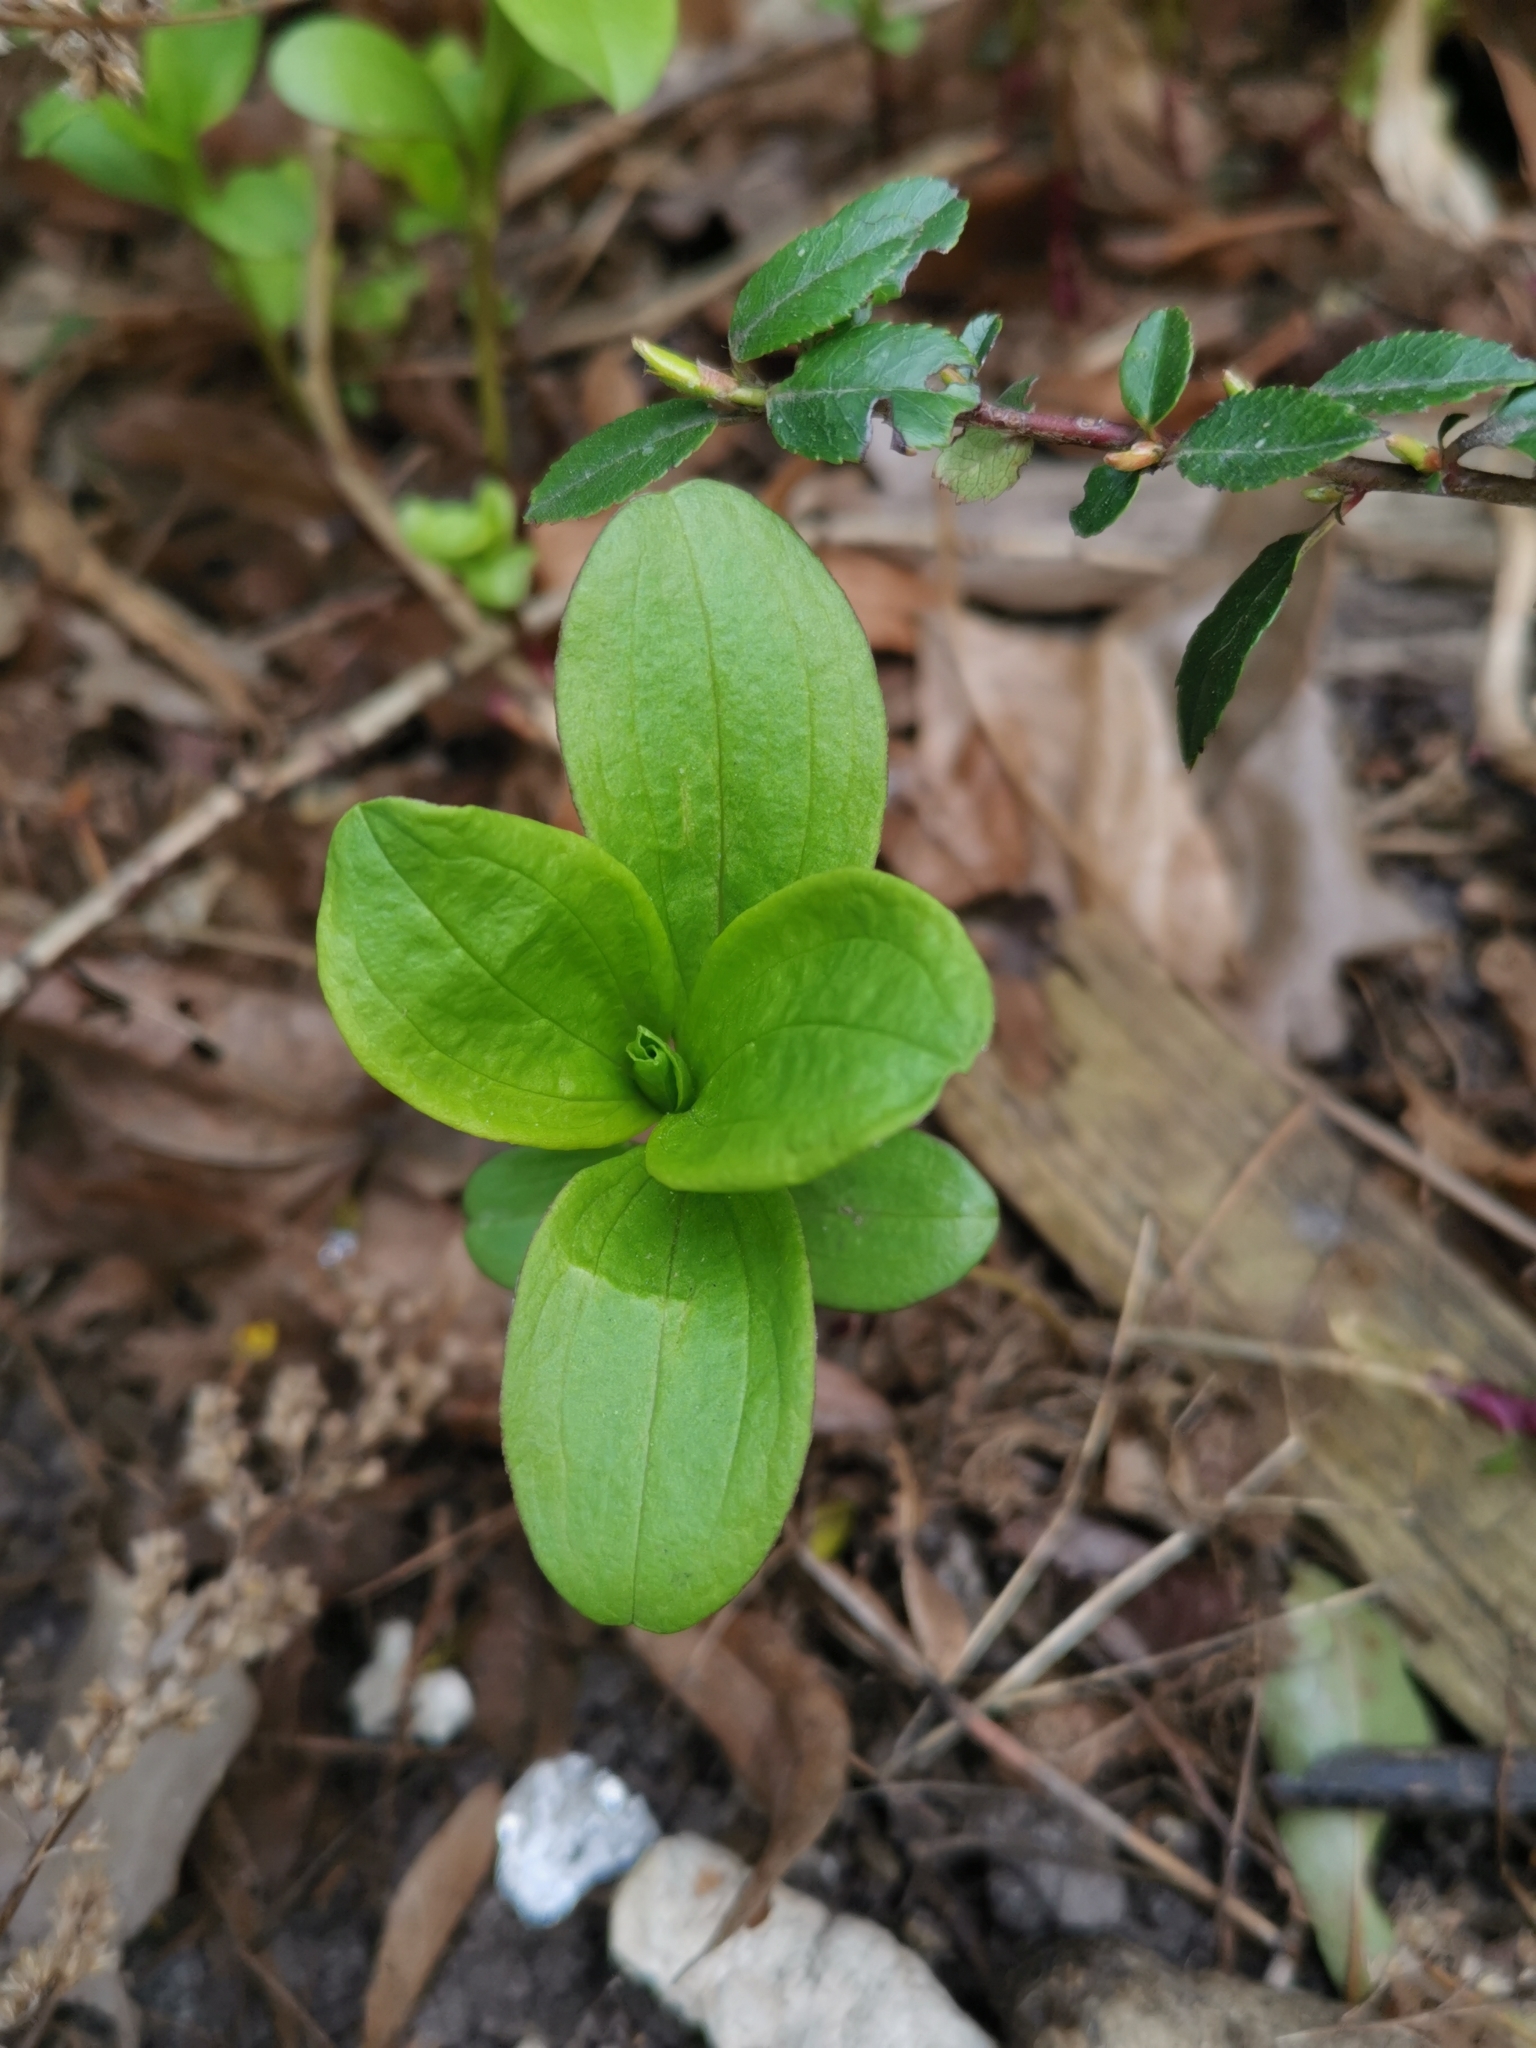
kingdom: Plantae
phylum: Tracheophyta
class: Magnoliopsida
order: Caryophyllales
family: Caryophyllaceae
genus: Saponaria
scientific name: Saponaria officinalis
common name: Soapwort
